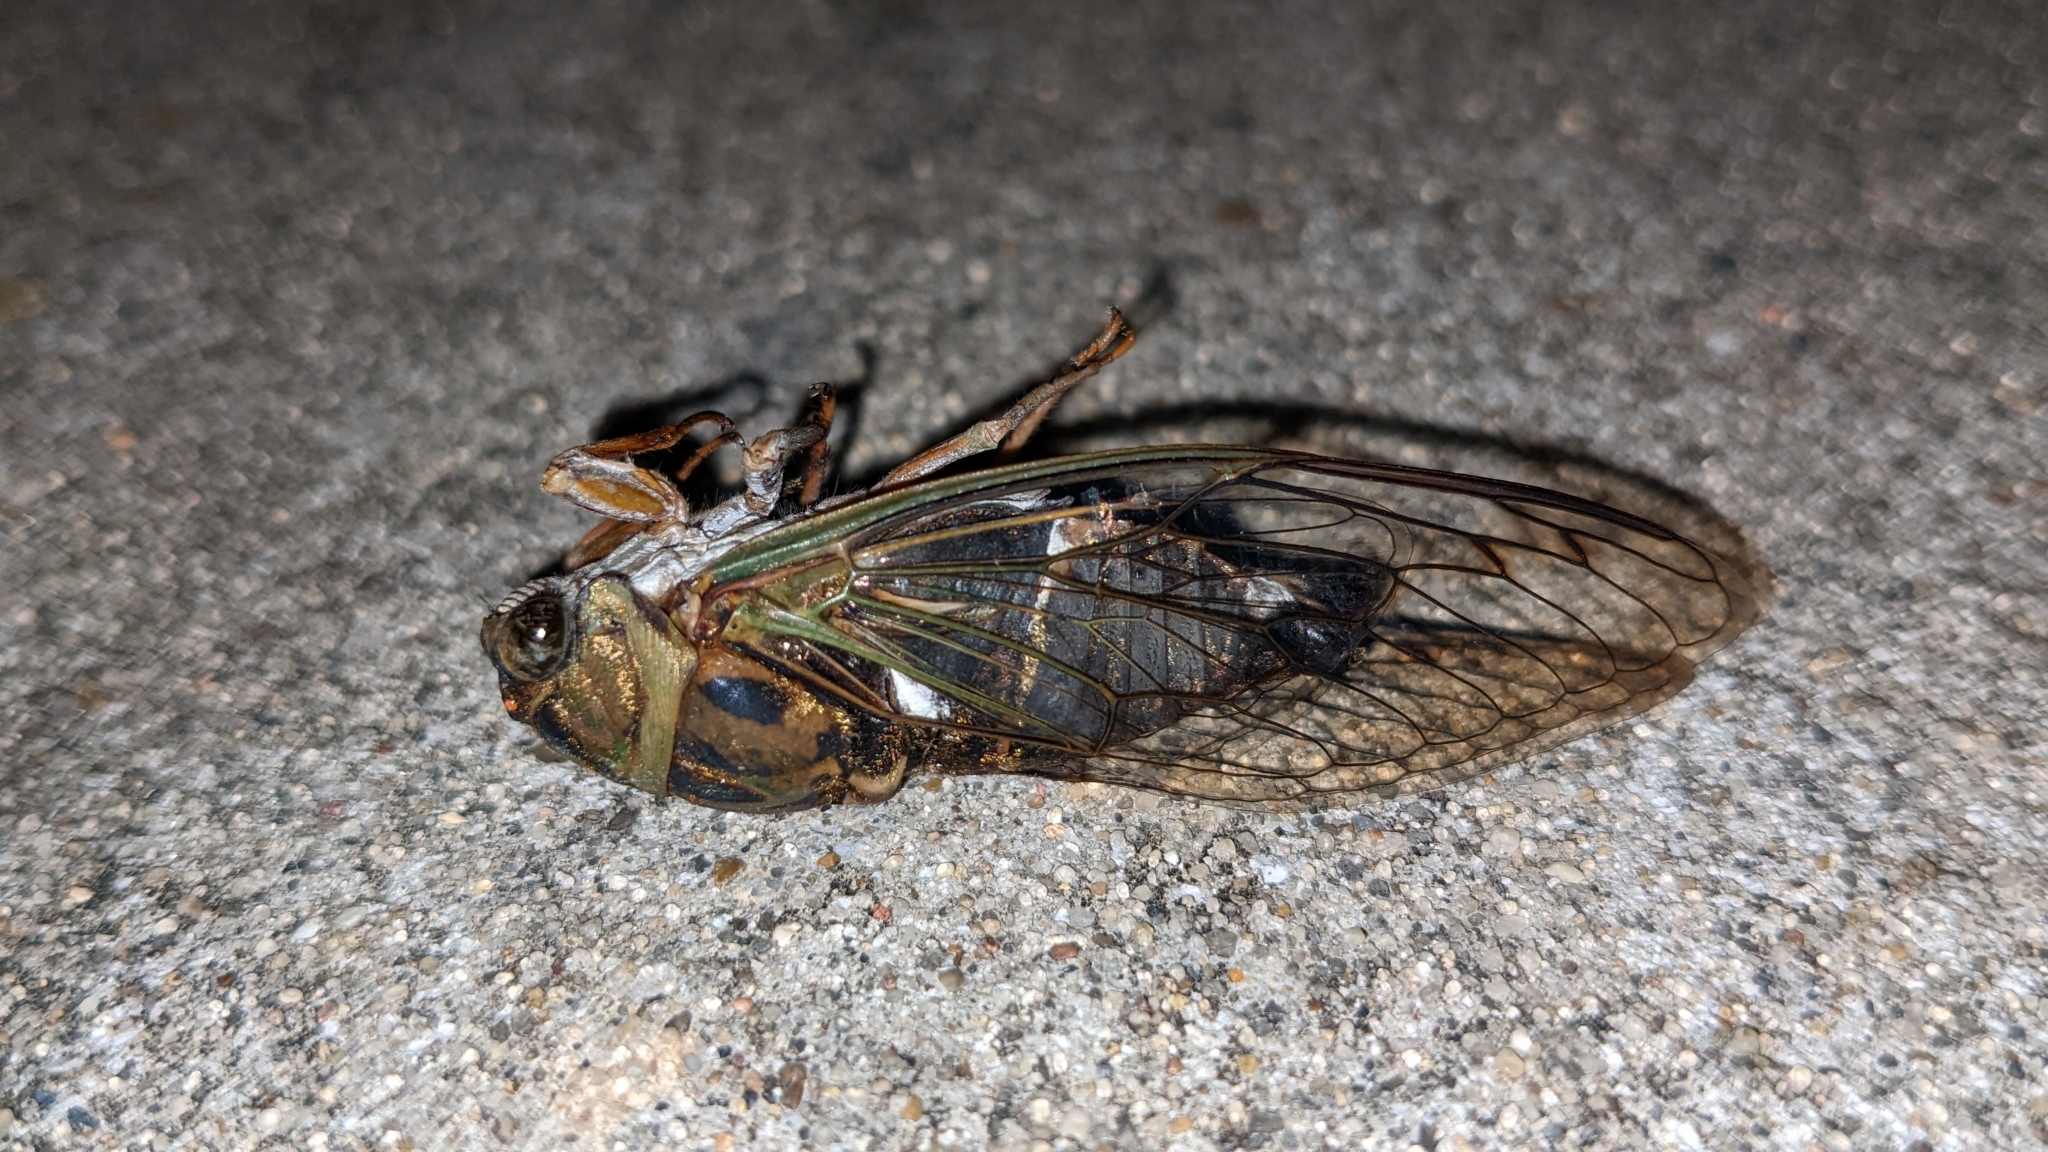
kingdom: Animalia
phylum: Arthropoda
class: Insecta
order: Hemiptera
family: Cicadidae
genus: Neotibicen
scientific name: Neotibicen pruinosus
